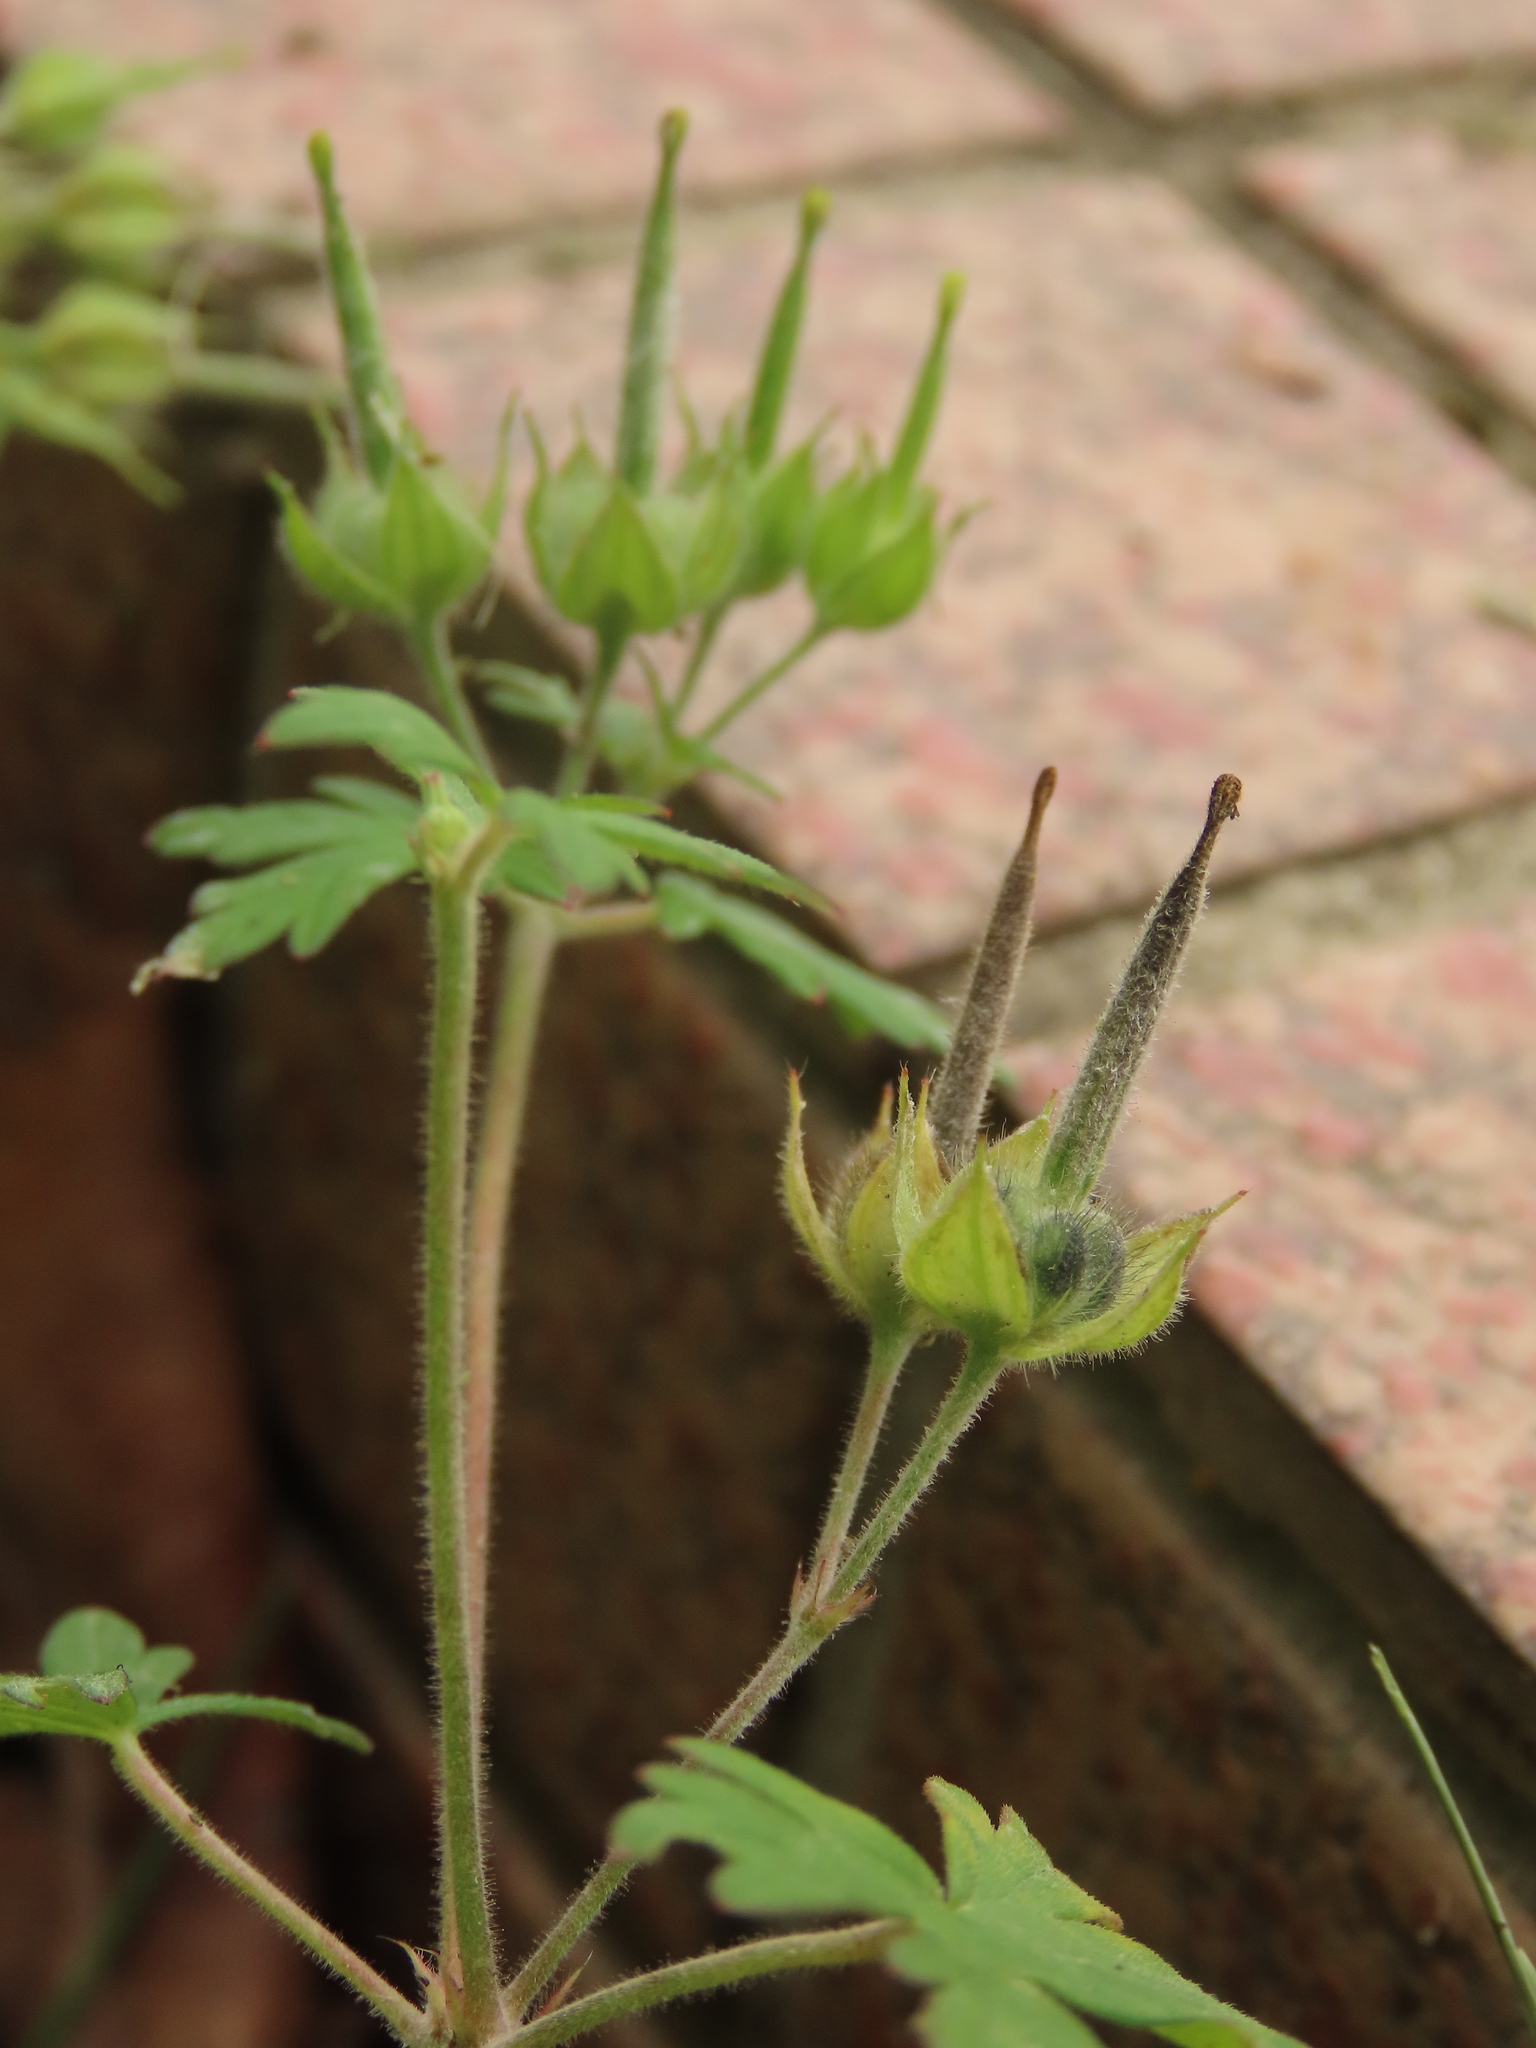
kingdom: Plantae
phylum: Tracheophyta
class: Magnoliopsida
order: Geraniales
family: Geraniaceae
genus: Geranium
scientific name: Geranium carolinianum
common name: Carolina crane's-bill
